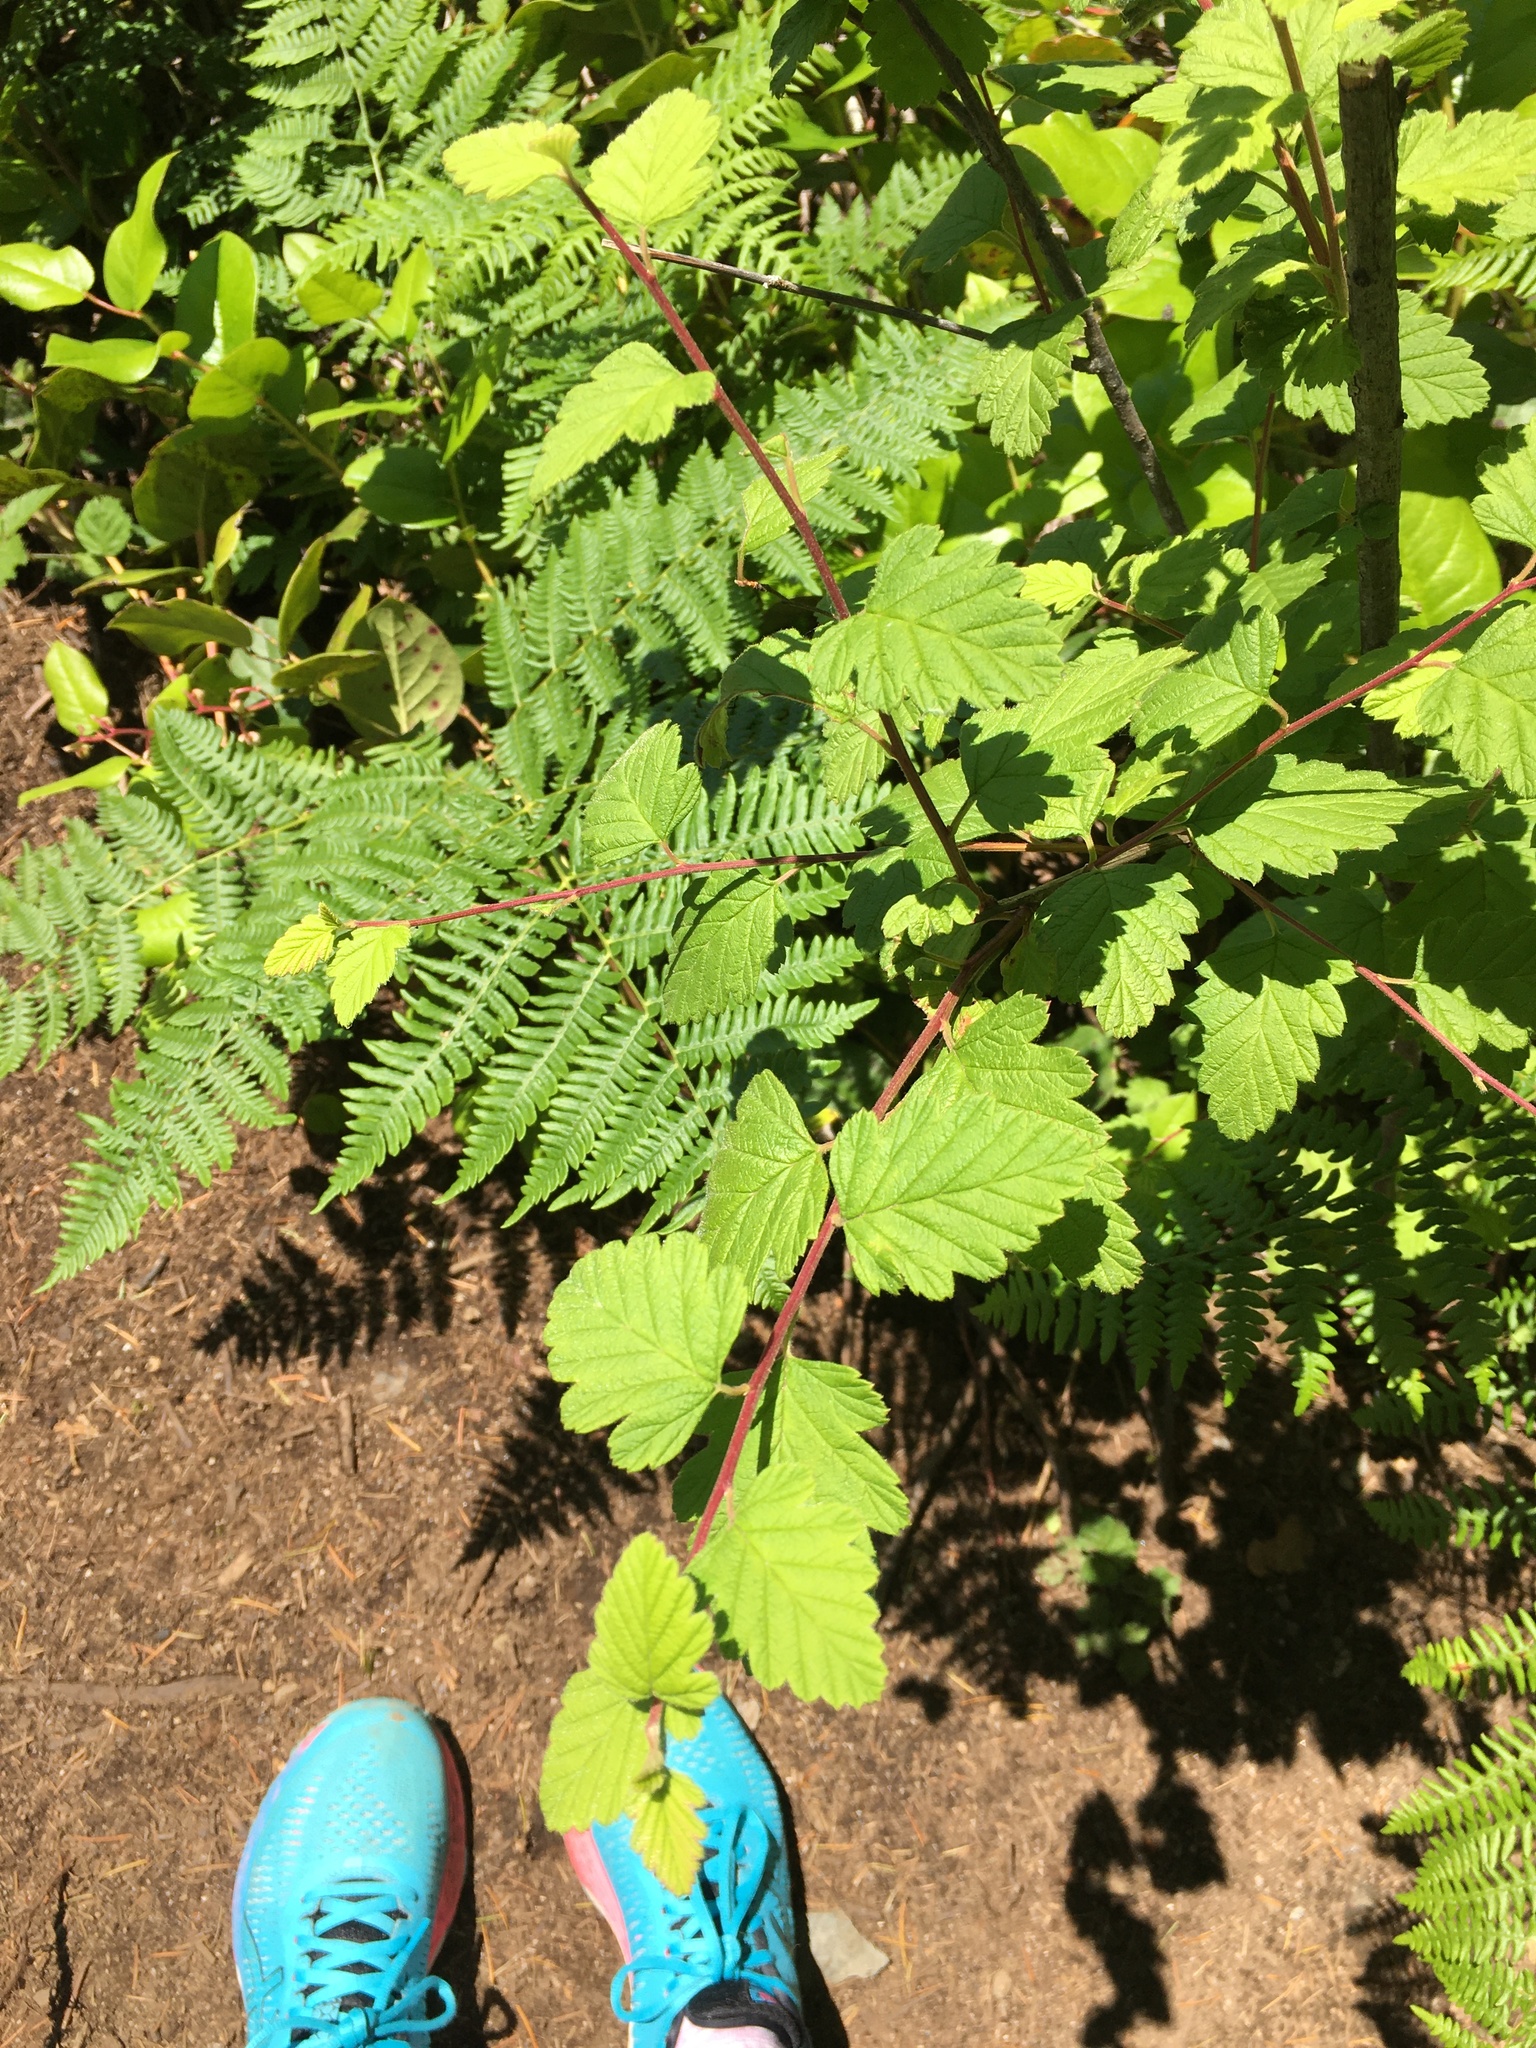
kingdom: Plantae
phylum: Tracheophyta
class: Magnoliopsida
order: Rosales
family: Rosaceae
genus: Holodiscus
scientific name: Holodiscus discolor
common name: Oceanspray
